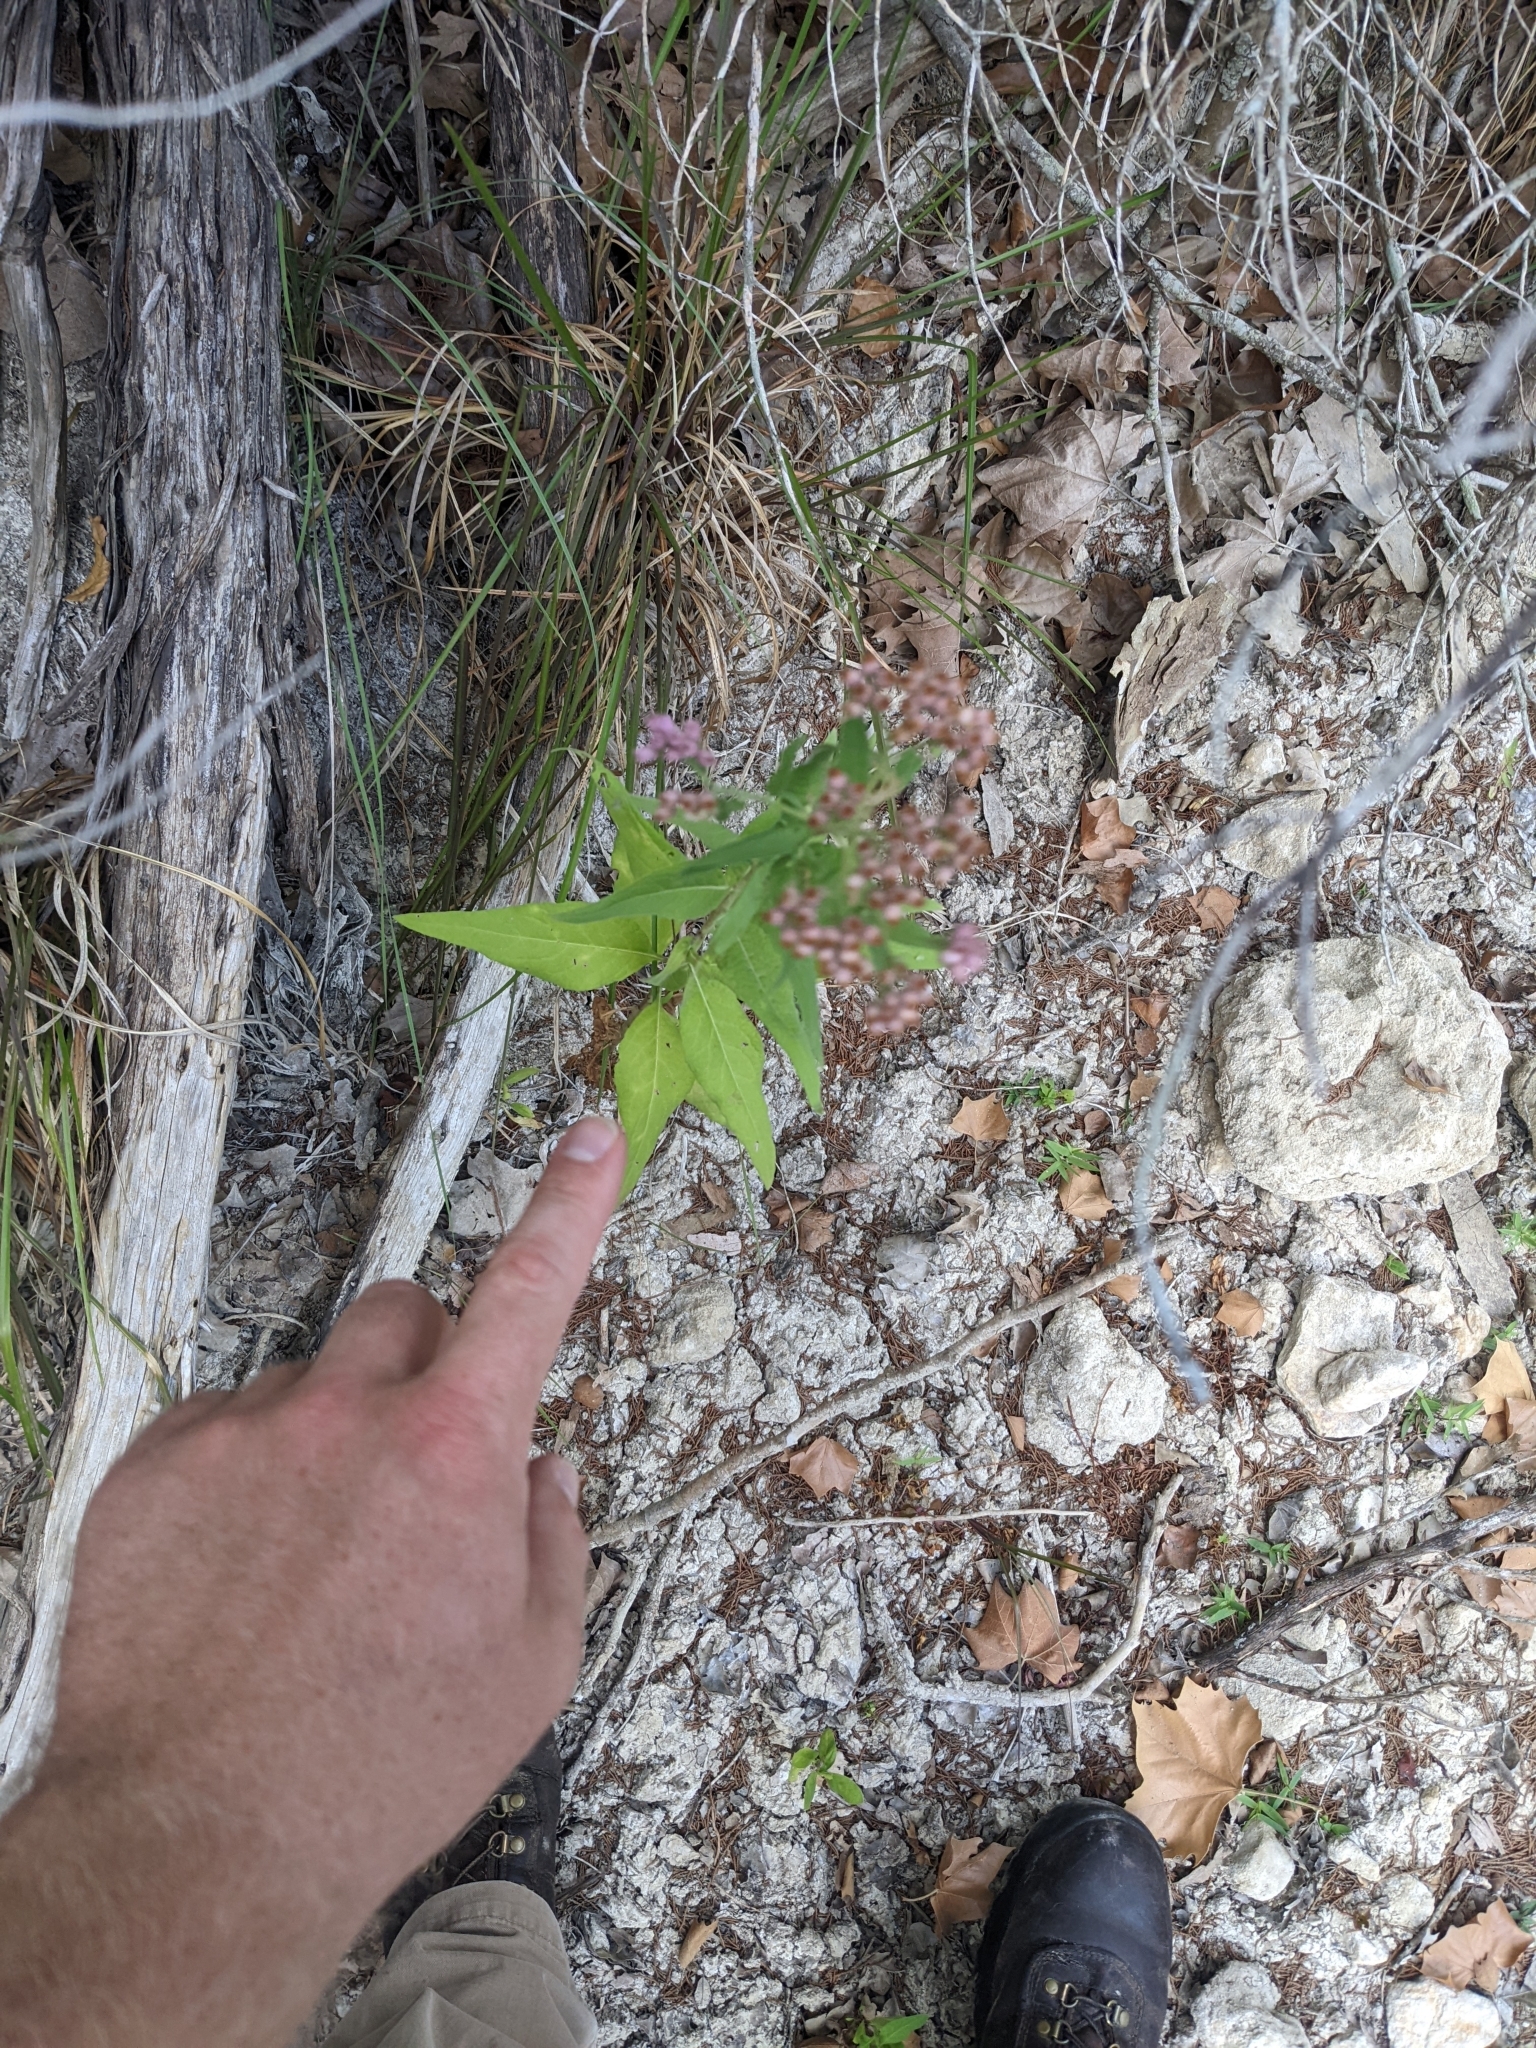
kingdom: Plantae
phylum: Tracheophyta
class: Magnoliopsida
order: Asterales
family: Asteraceae
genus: Pluchea
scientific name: Pluchea odorata
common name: Saltmarsh fleabane
